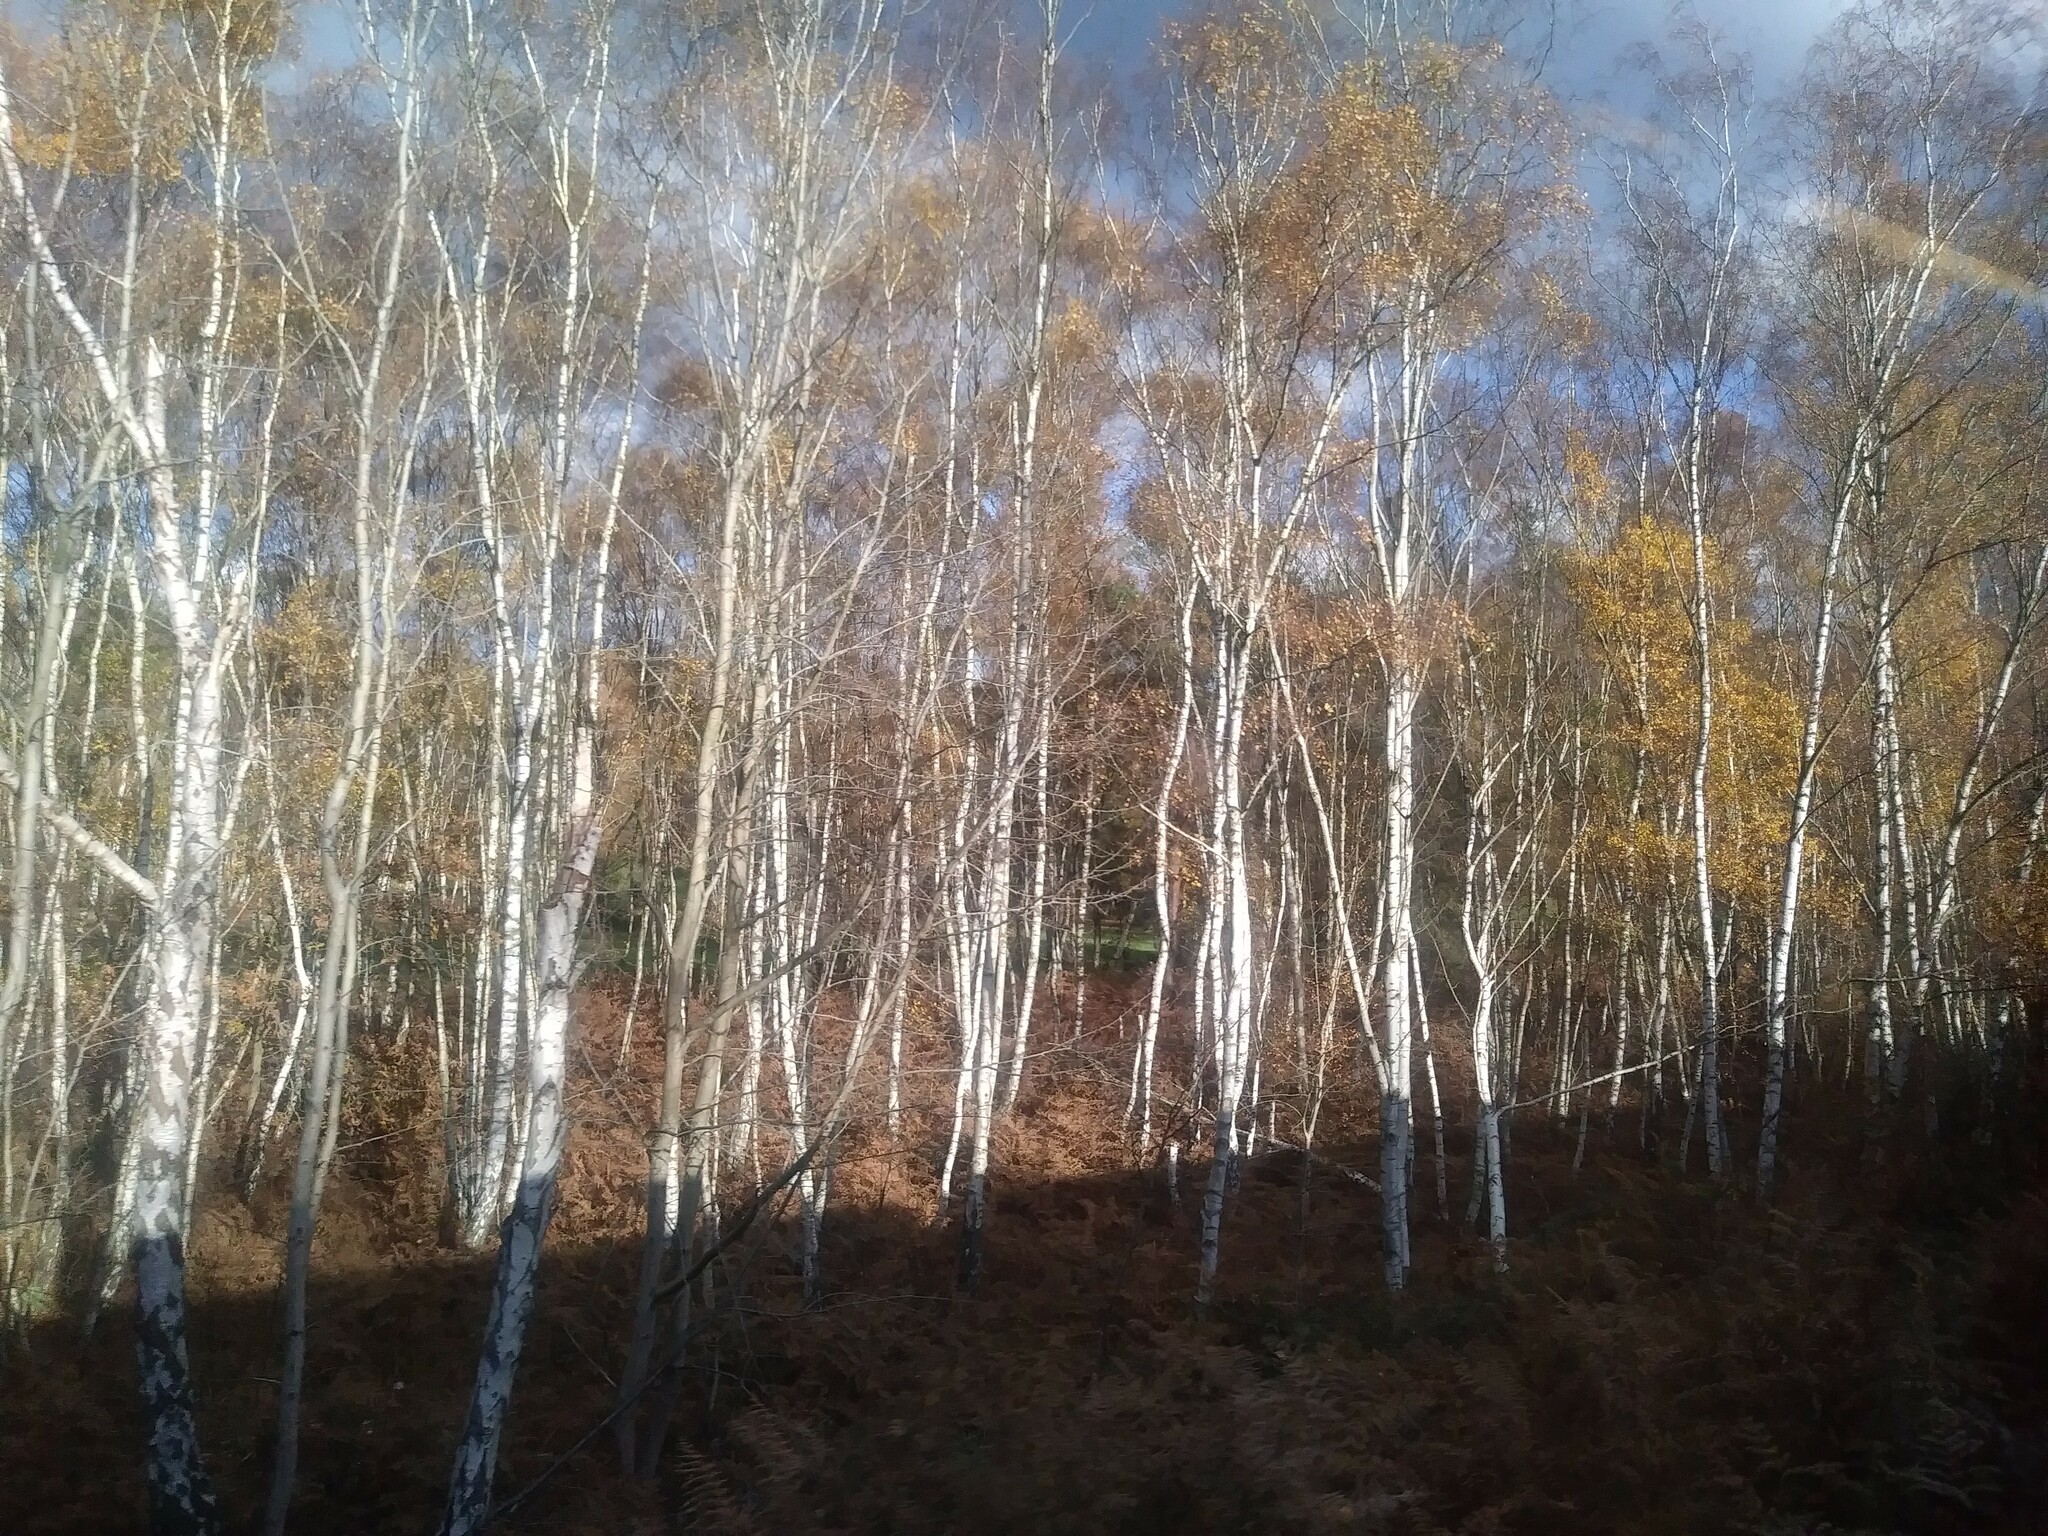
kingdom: Plantae
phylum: Tracheophyta
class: Magnoliopsida
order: Fagales
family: Betulaceae
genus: Betula
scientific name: Betula pendula
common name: Silver birch
